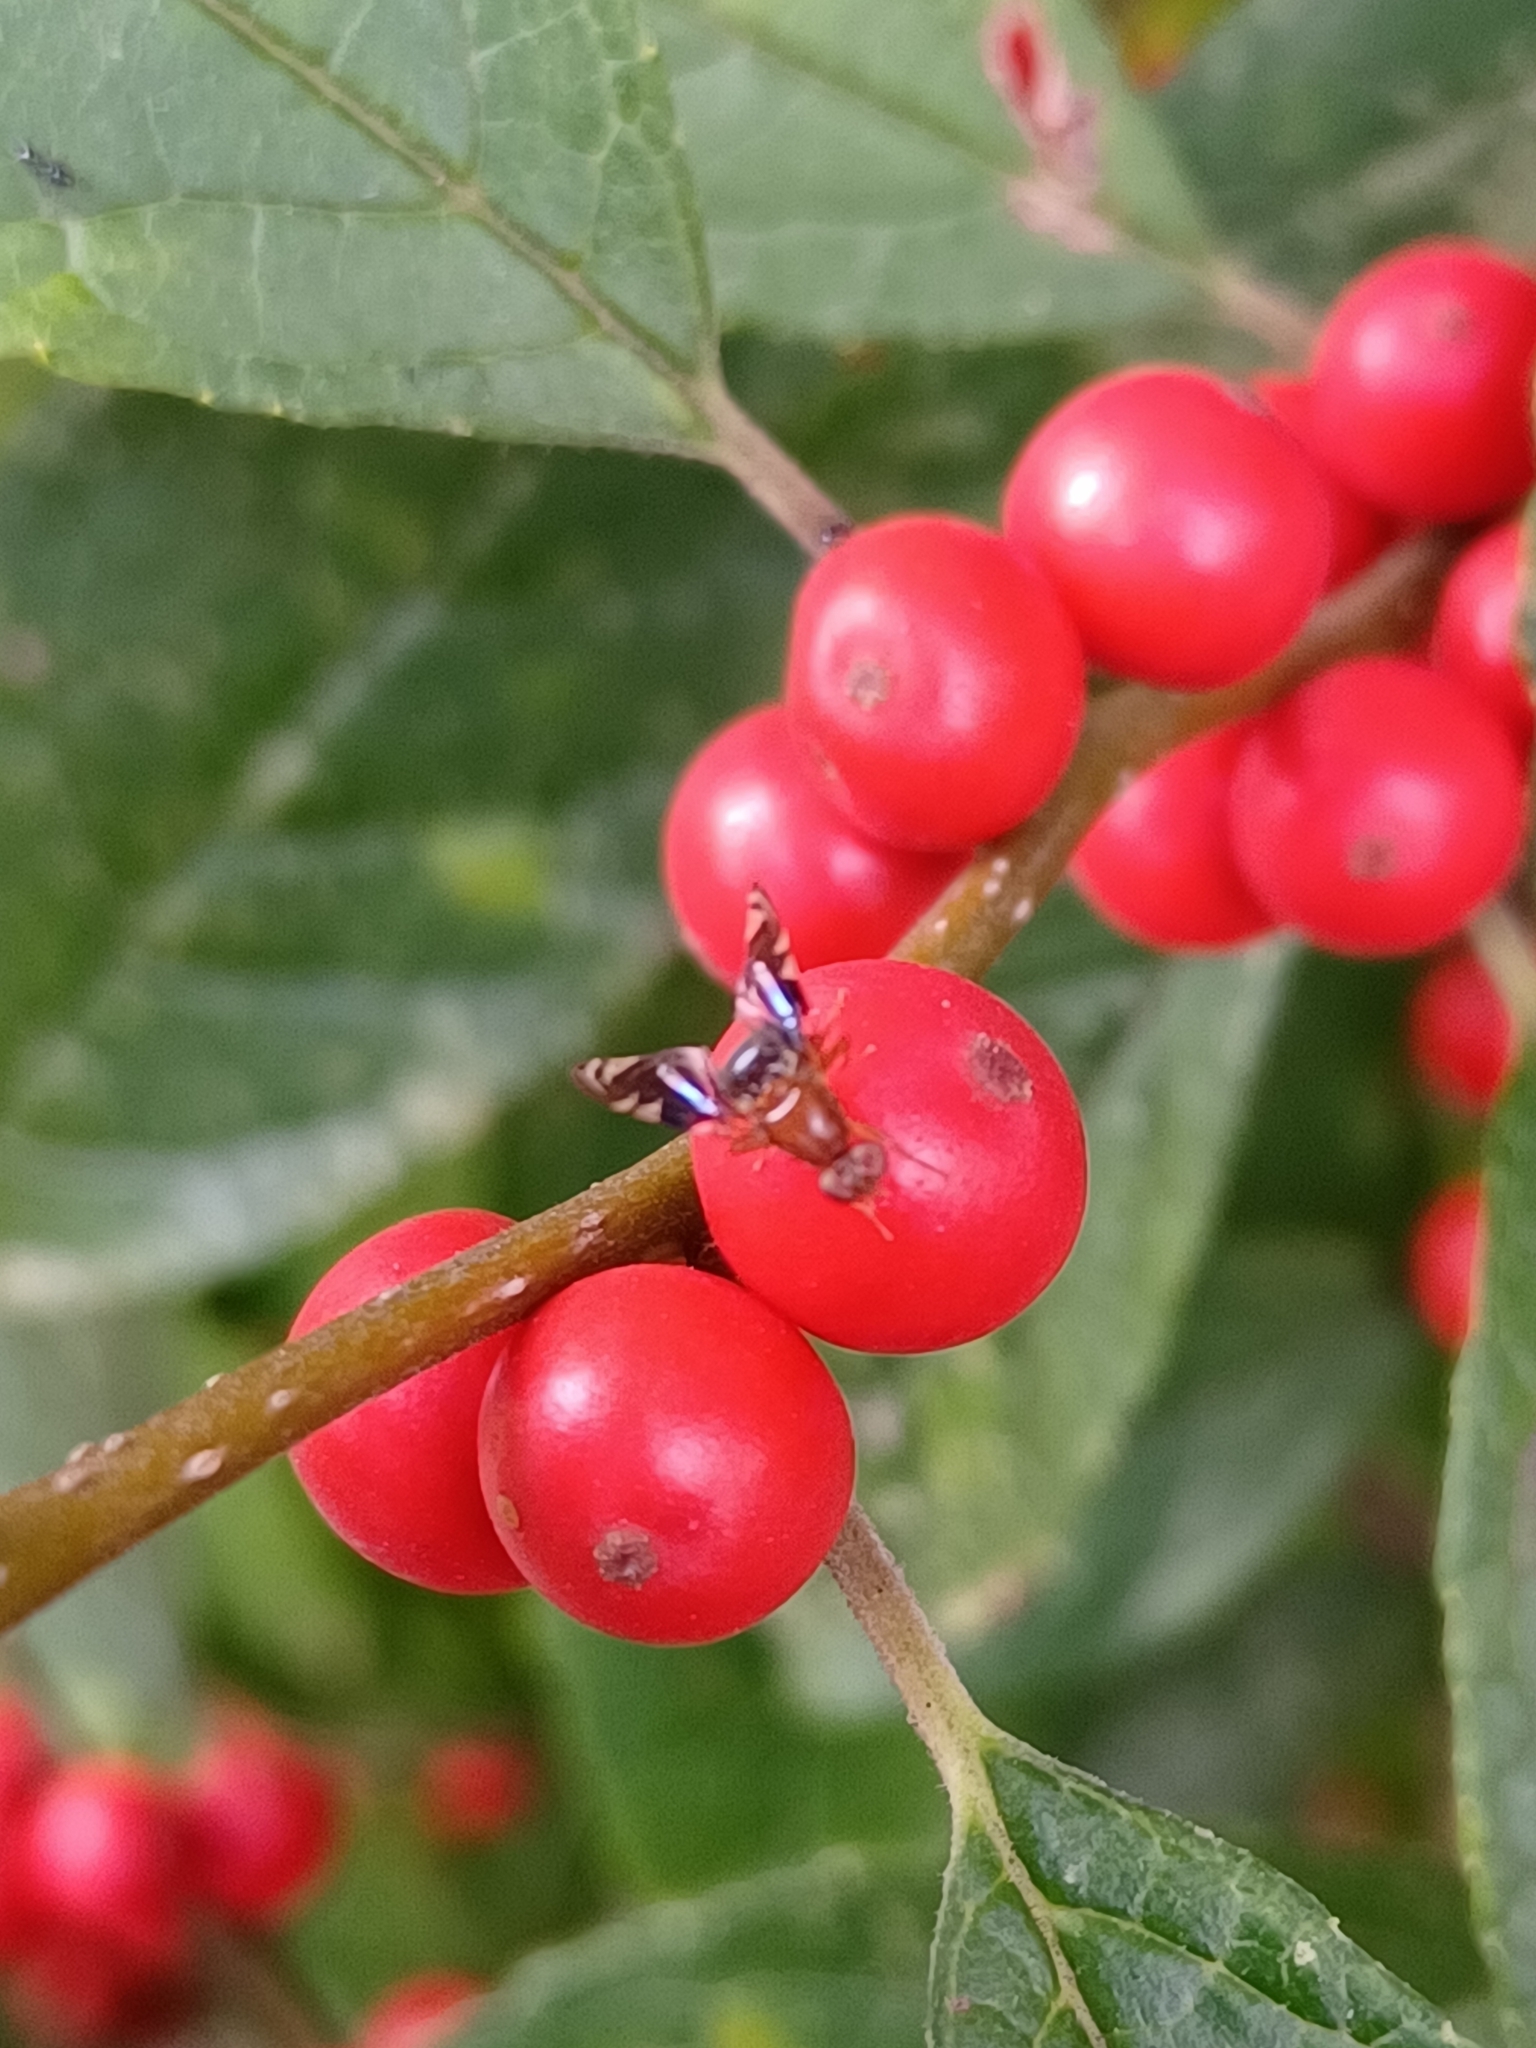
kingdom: Animalia
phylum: Arthropoda
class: Insecta
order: Diptera
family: Ulidiidae
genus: Delphinia
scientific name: Delphinia picta
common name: Common picture-winged fly
